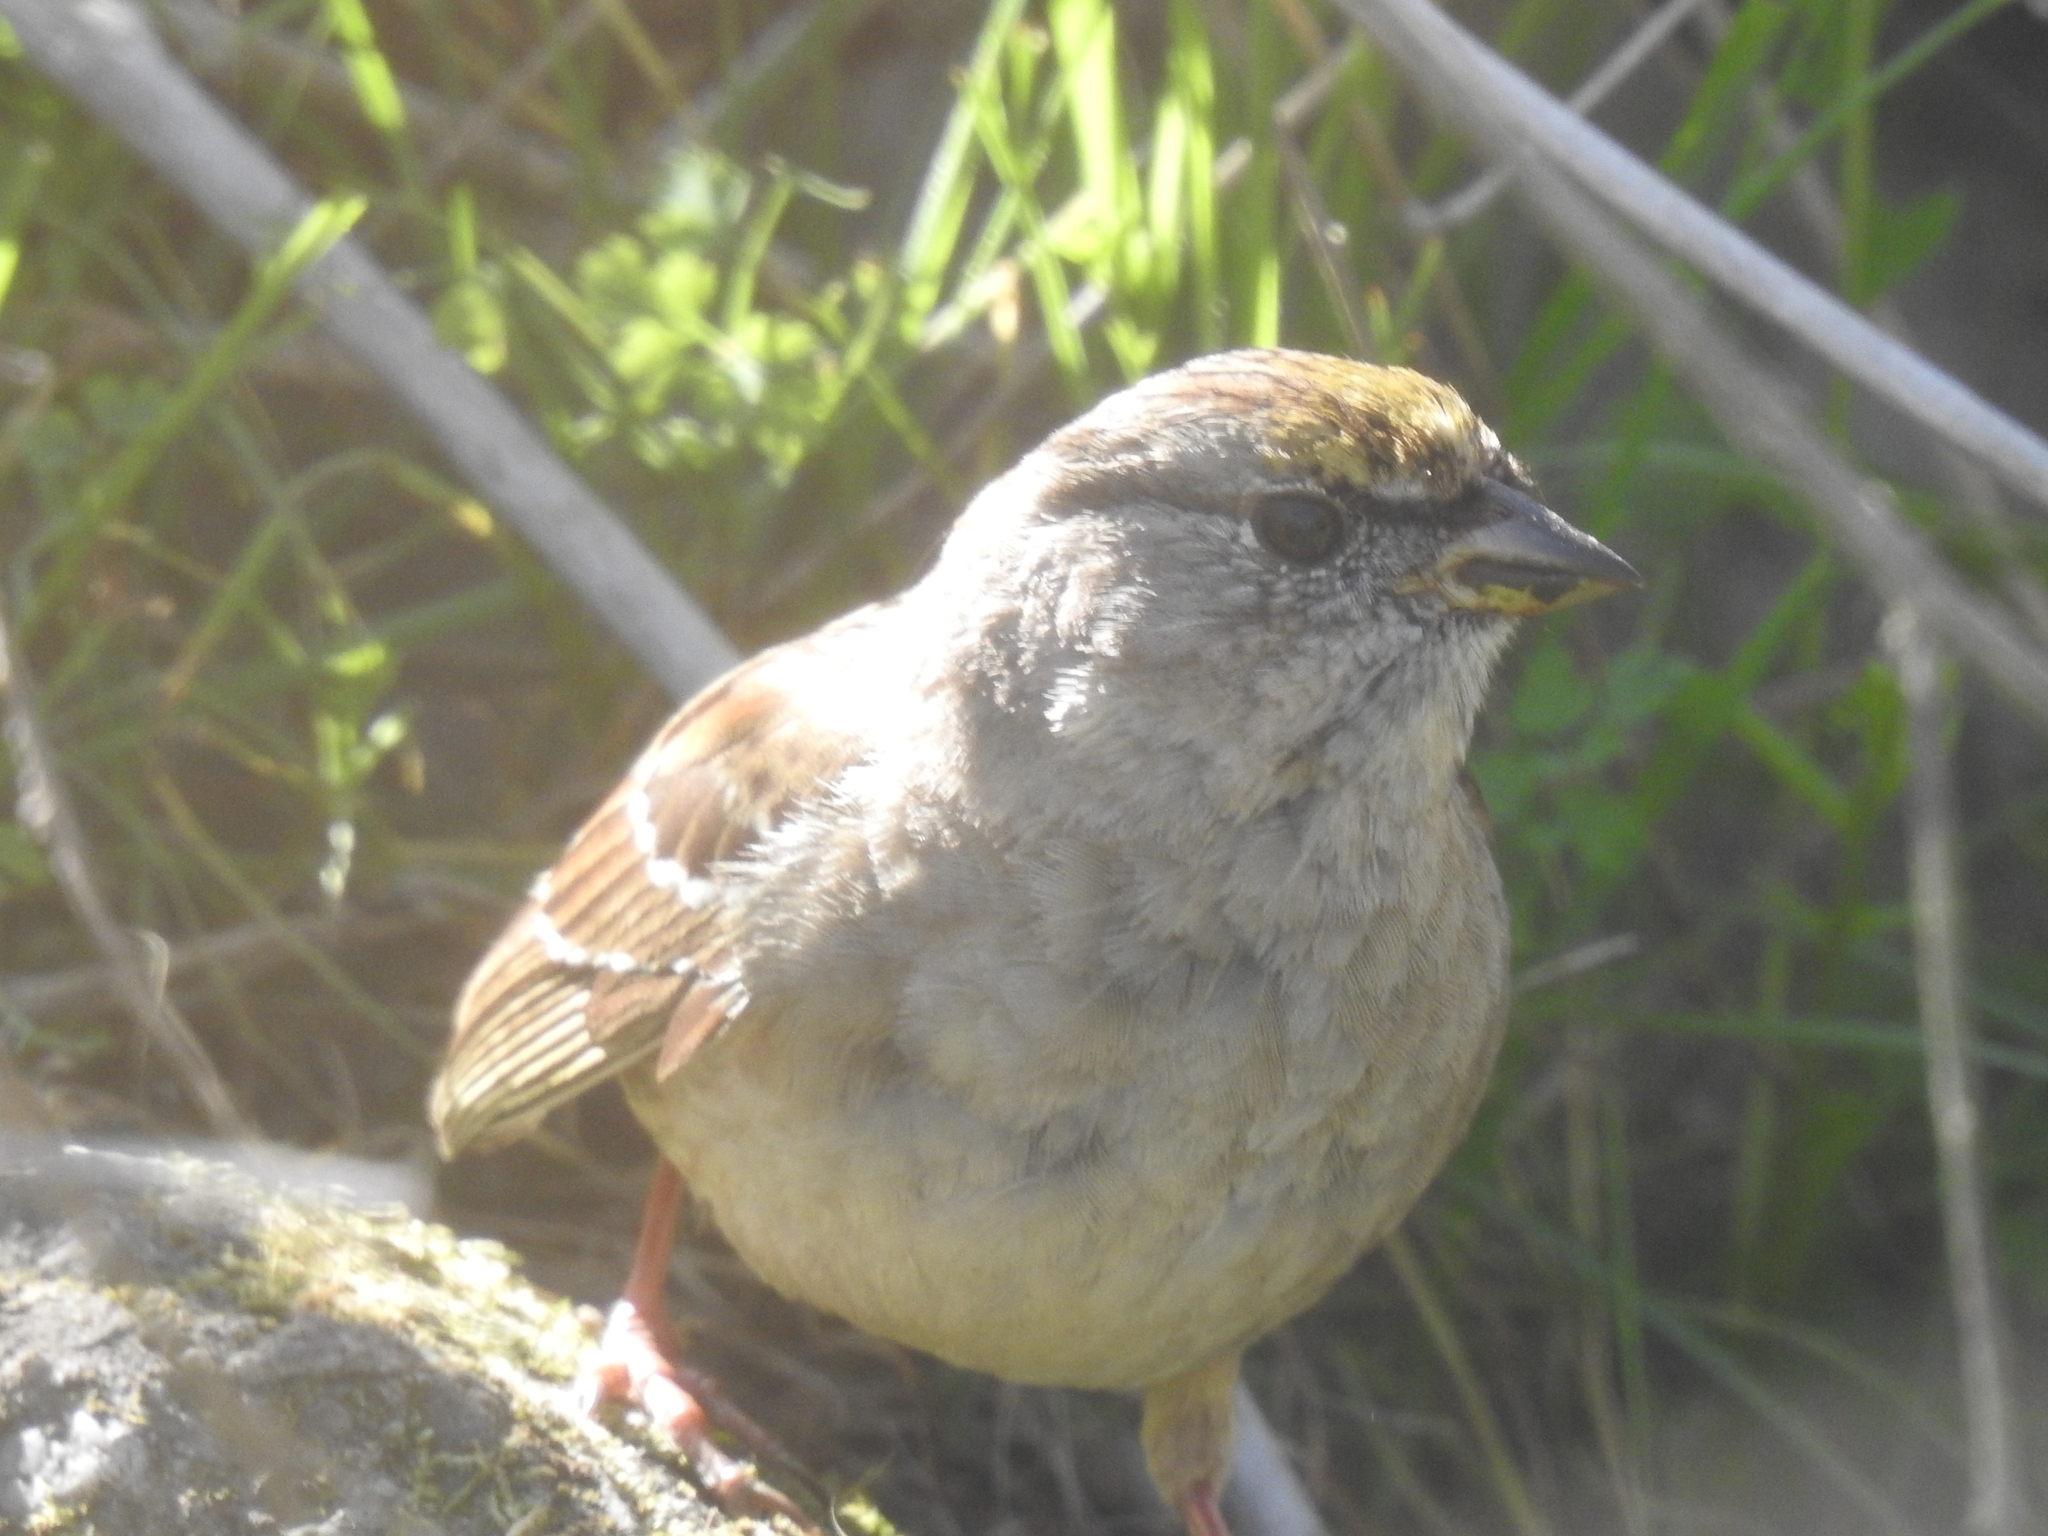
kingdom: Animalia
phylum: Chordata
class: Aves
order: Passeriformes
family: Passerellidae
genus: Zonotrichia
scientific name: Zonotrichia atricapilla
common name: Golden-crowned sparrow
